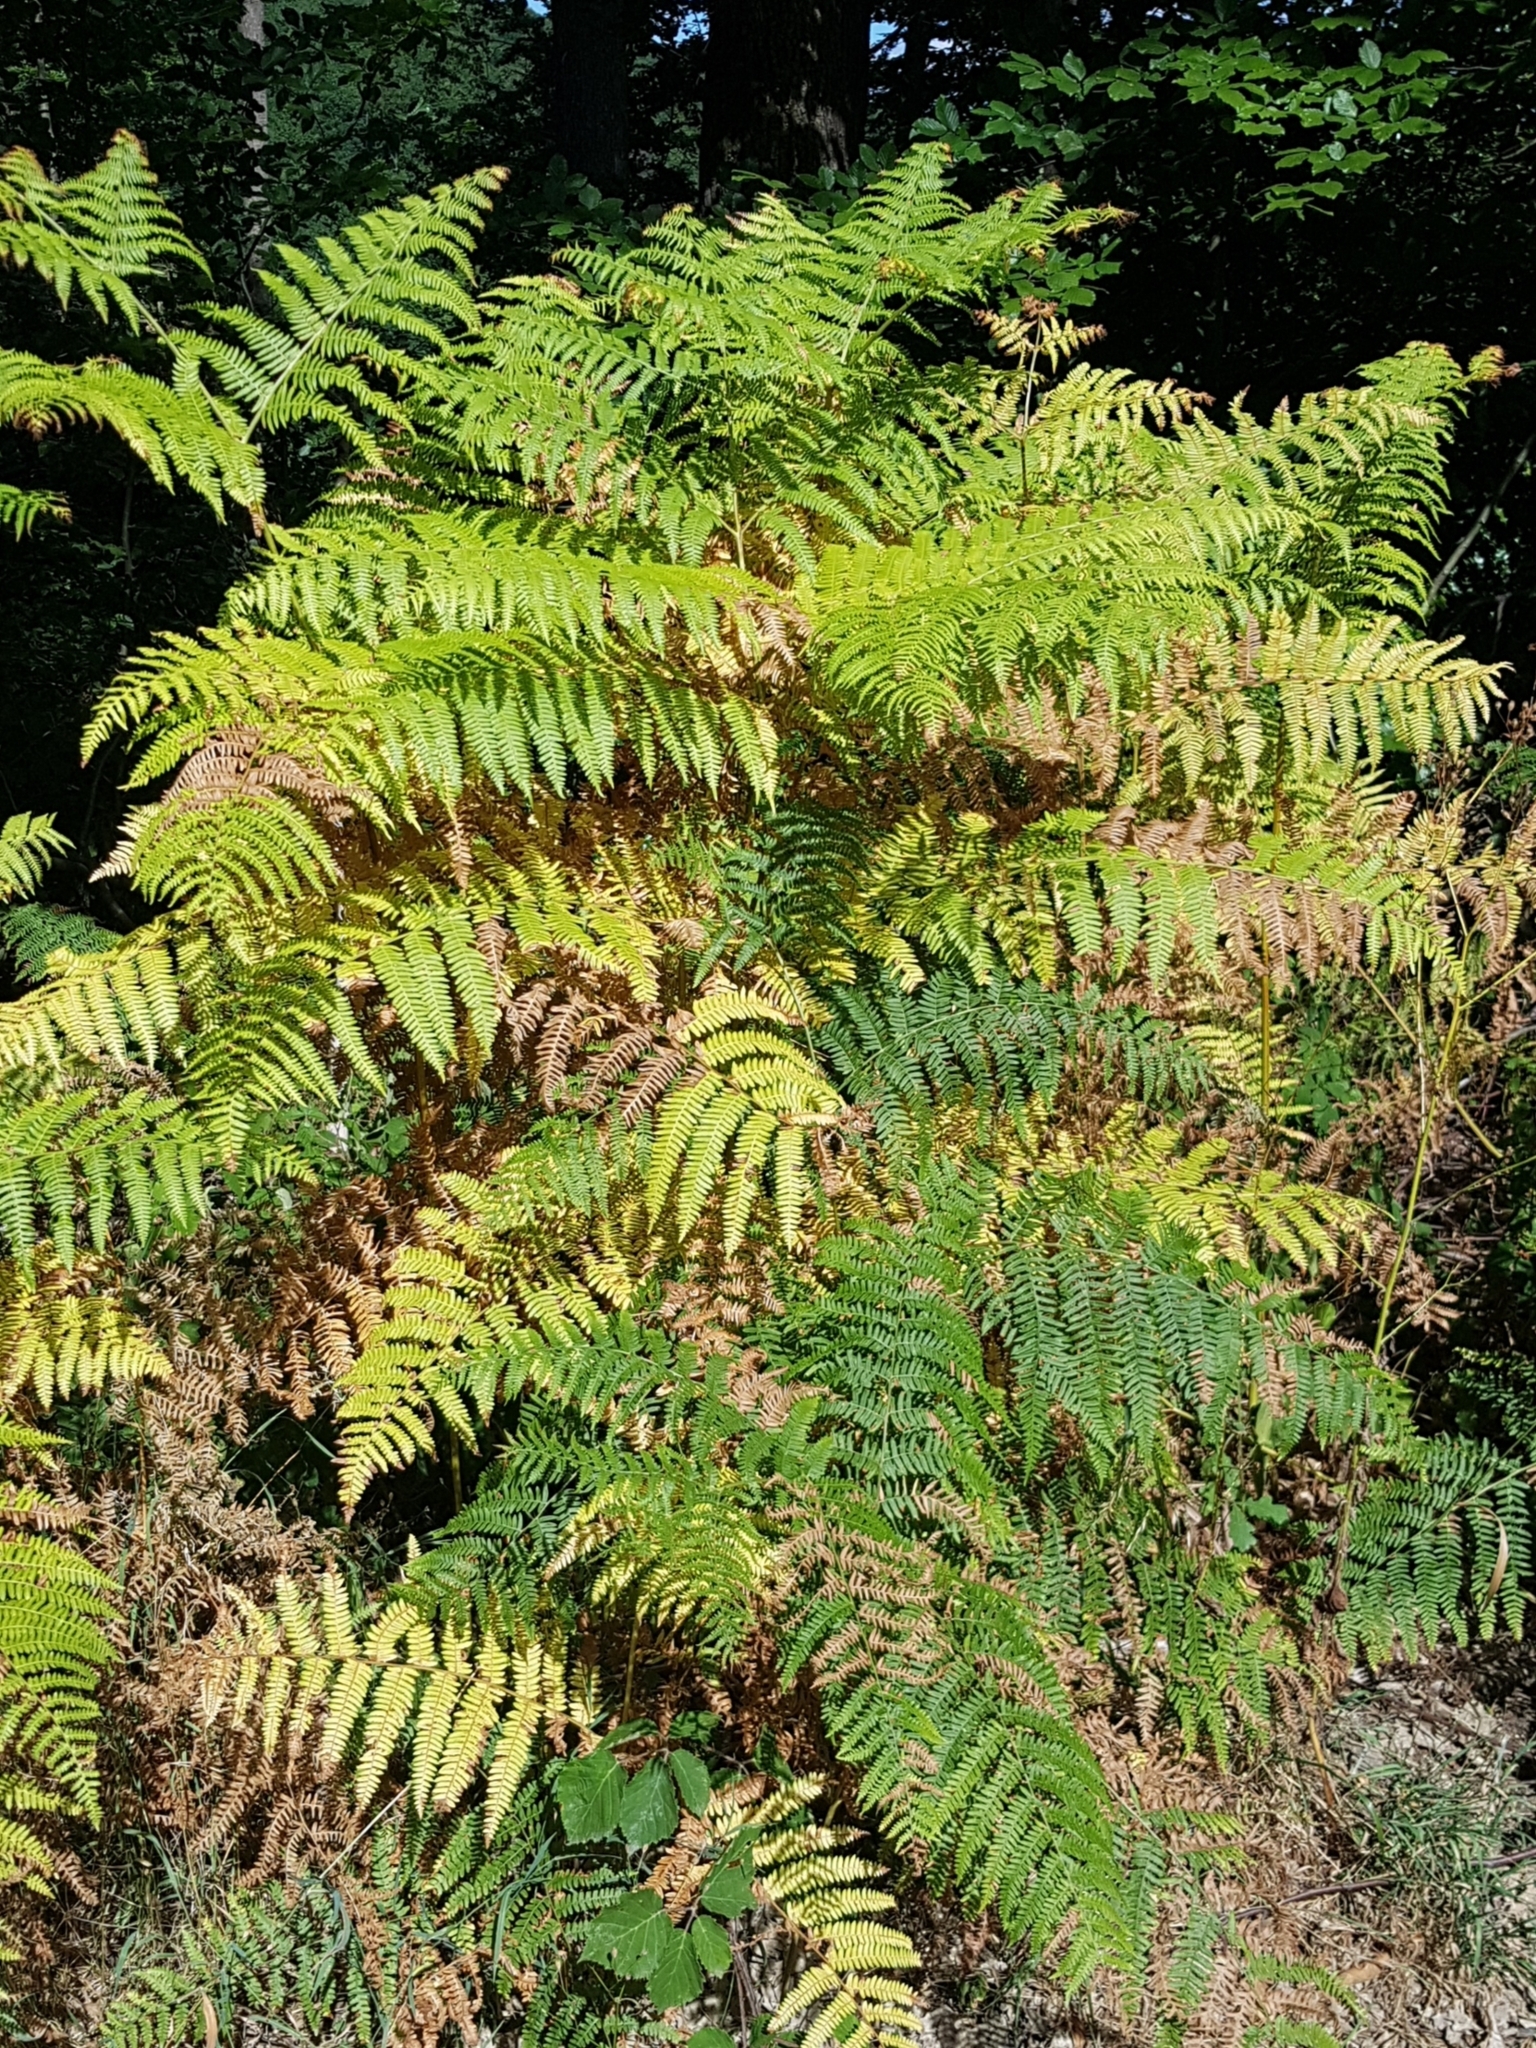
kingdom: Plantae
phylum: Tracheophyta
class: Polypodiopsida
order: Polypodiales
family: Dennstaedtiaceae
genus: Pteridium
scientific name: Pteridium aquilinum
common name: Bracken
